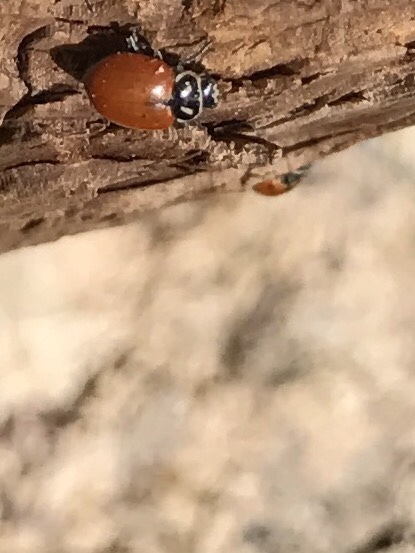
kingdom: Animalia
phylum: Arthropoda
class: Insecta
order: Coleoptera
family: Coccinellidae
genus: Hippodamia
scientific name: Hippodamia convergens
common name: Convergent lady beetle
